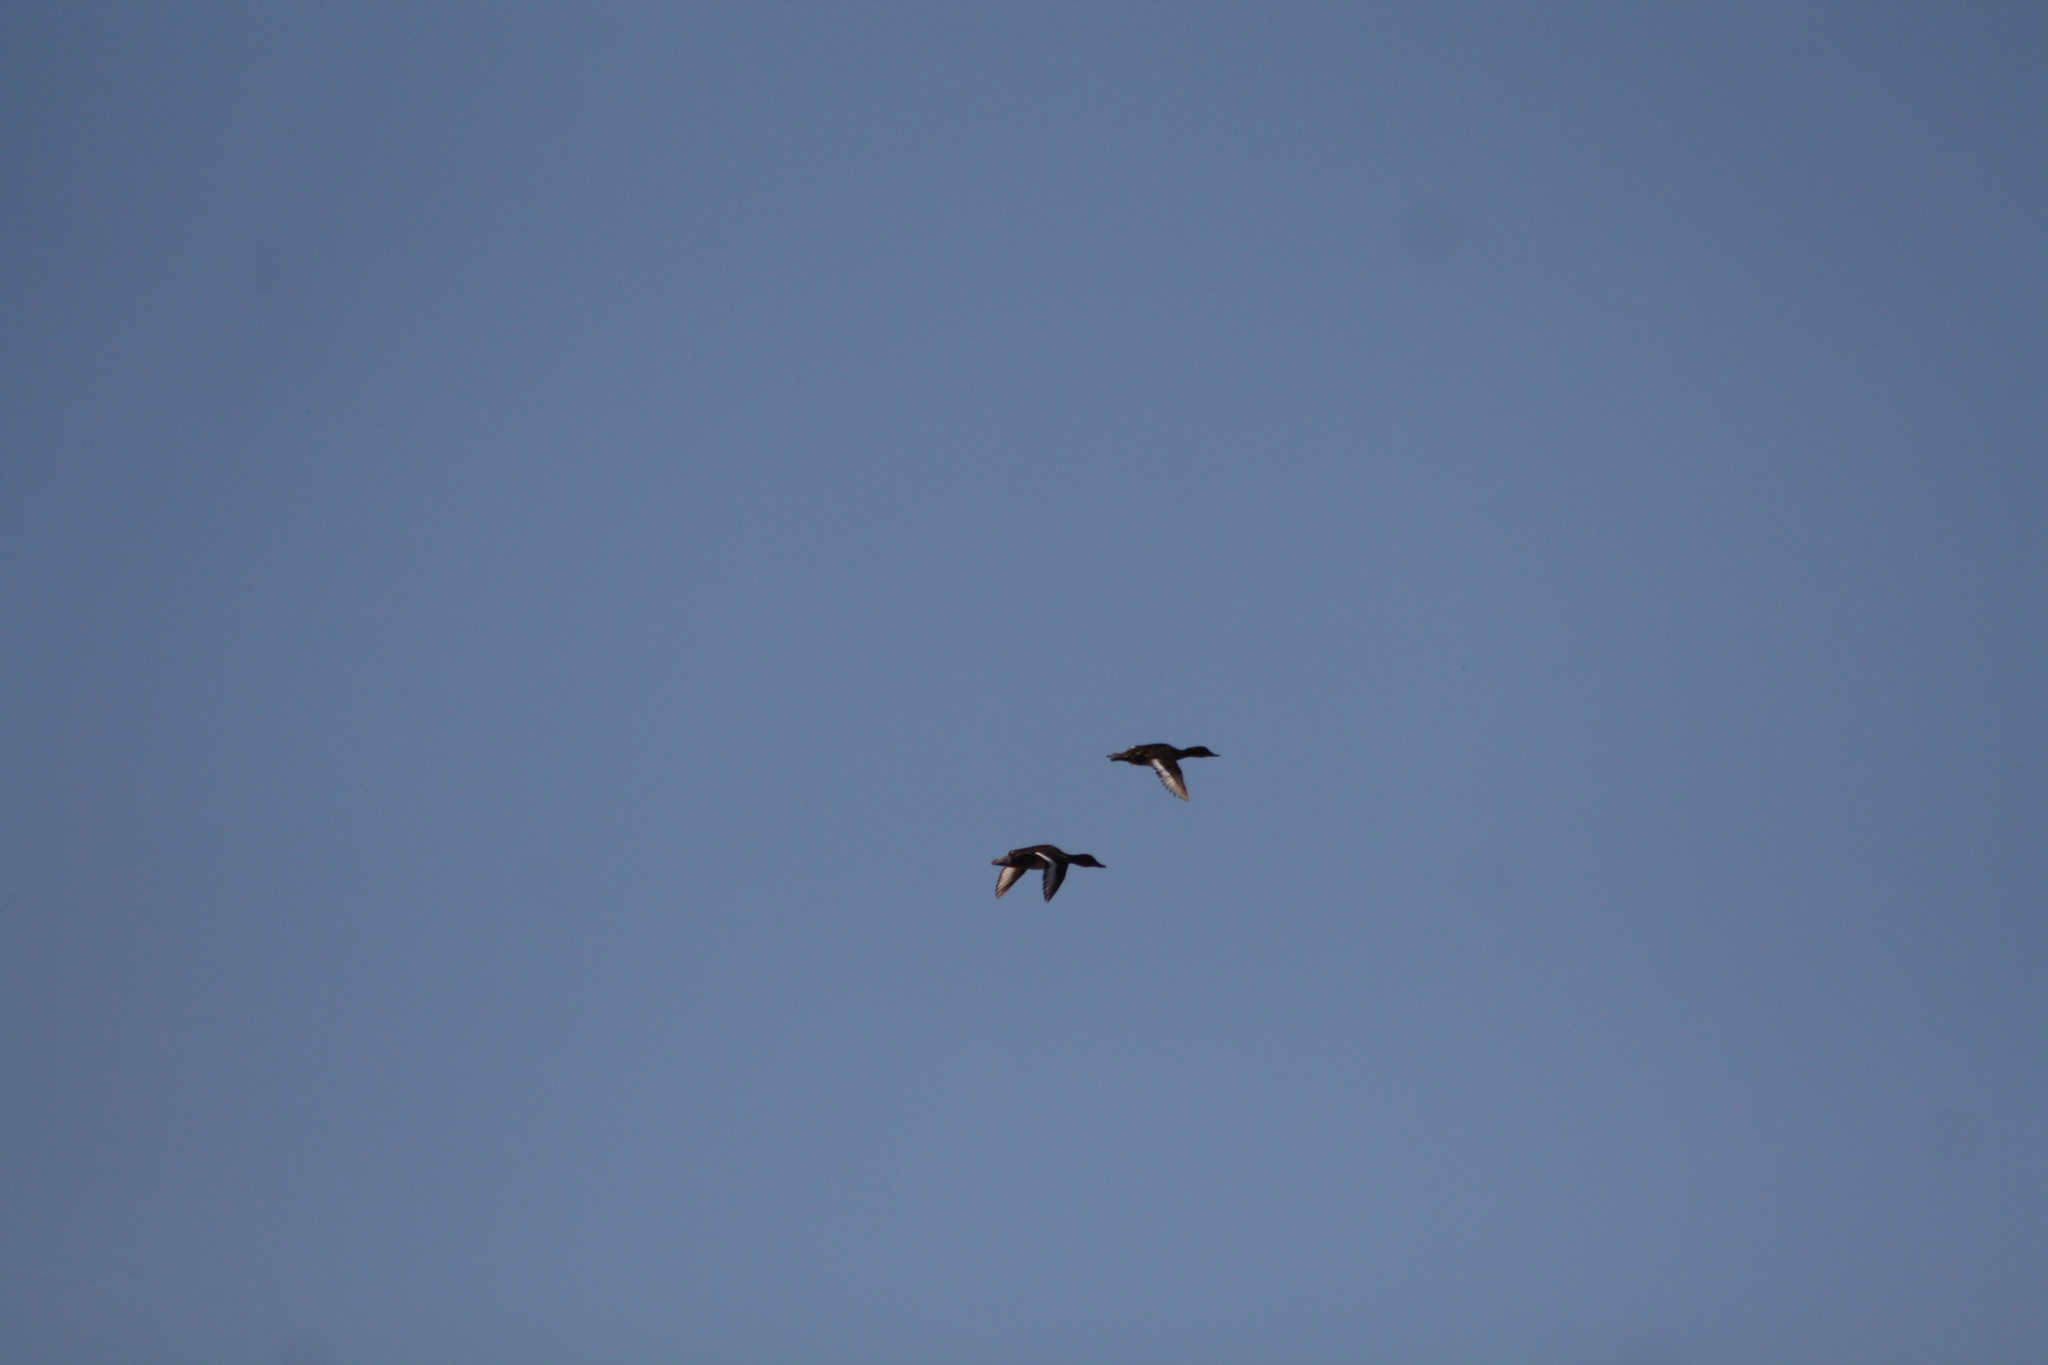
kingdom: Animalia
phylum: Chordata
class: Aves
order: Anseriformes
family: Anatidae
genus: Aythya
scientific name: Aythya nyroca
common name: Ferruginous duck
